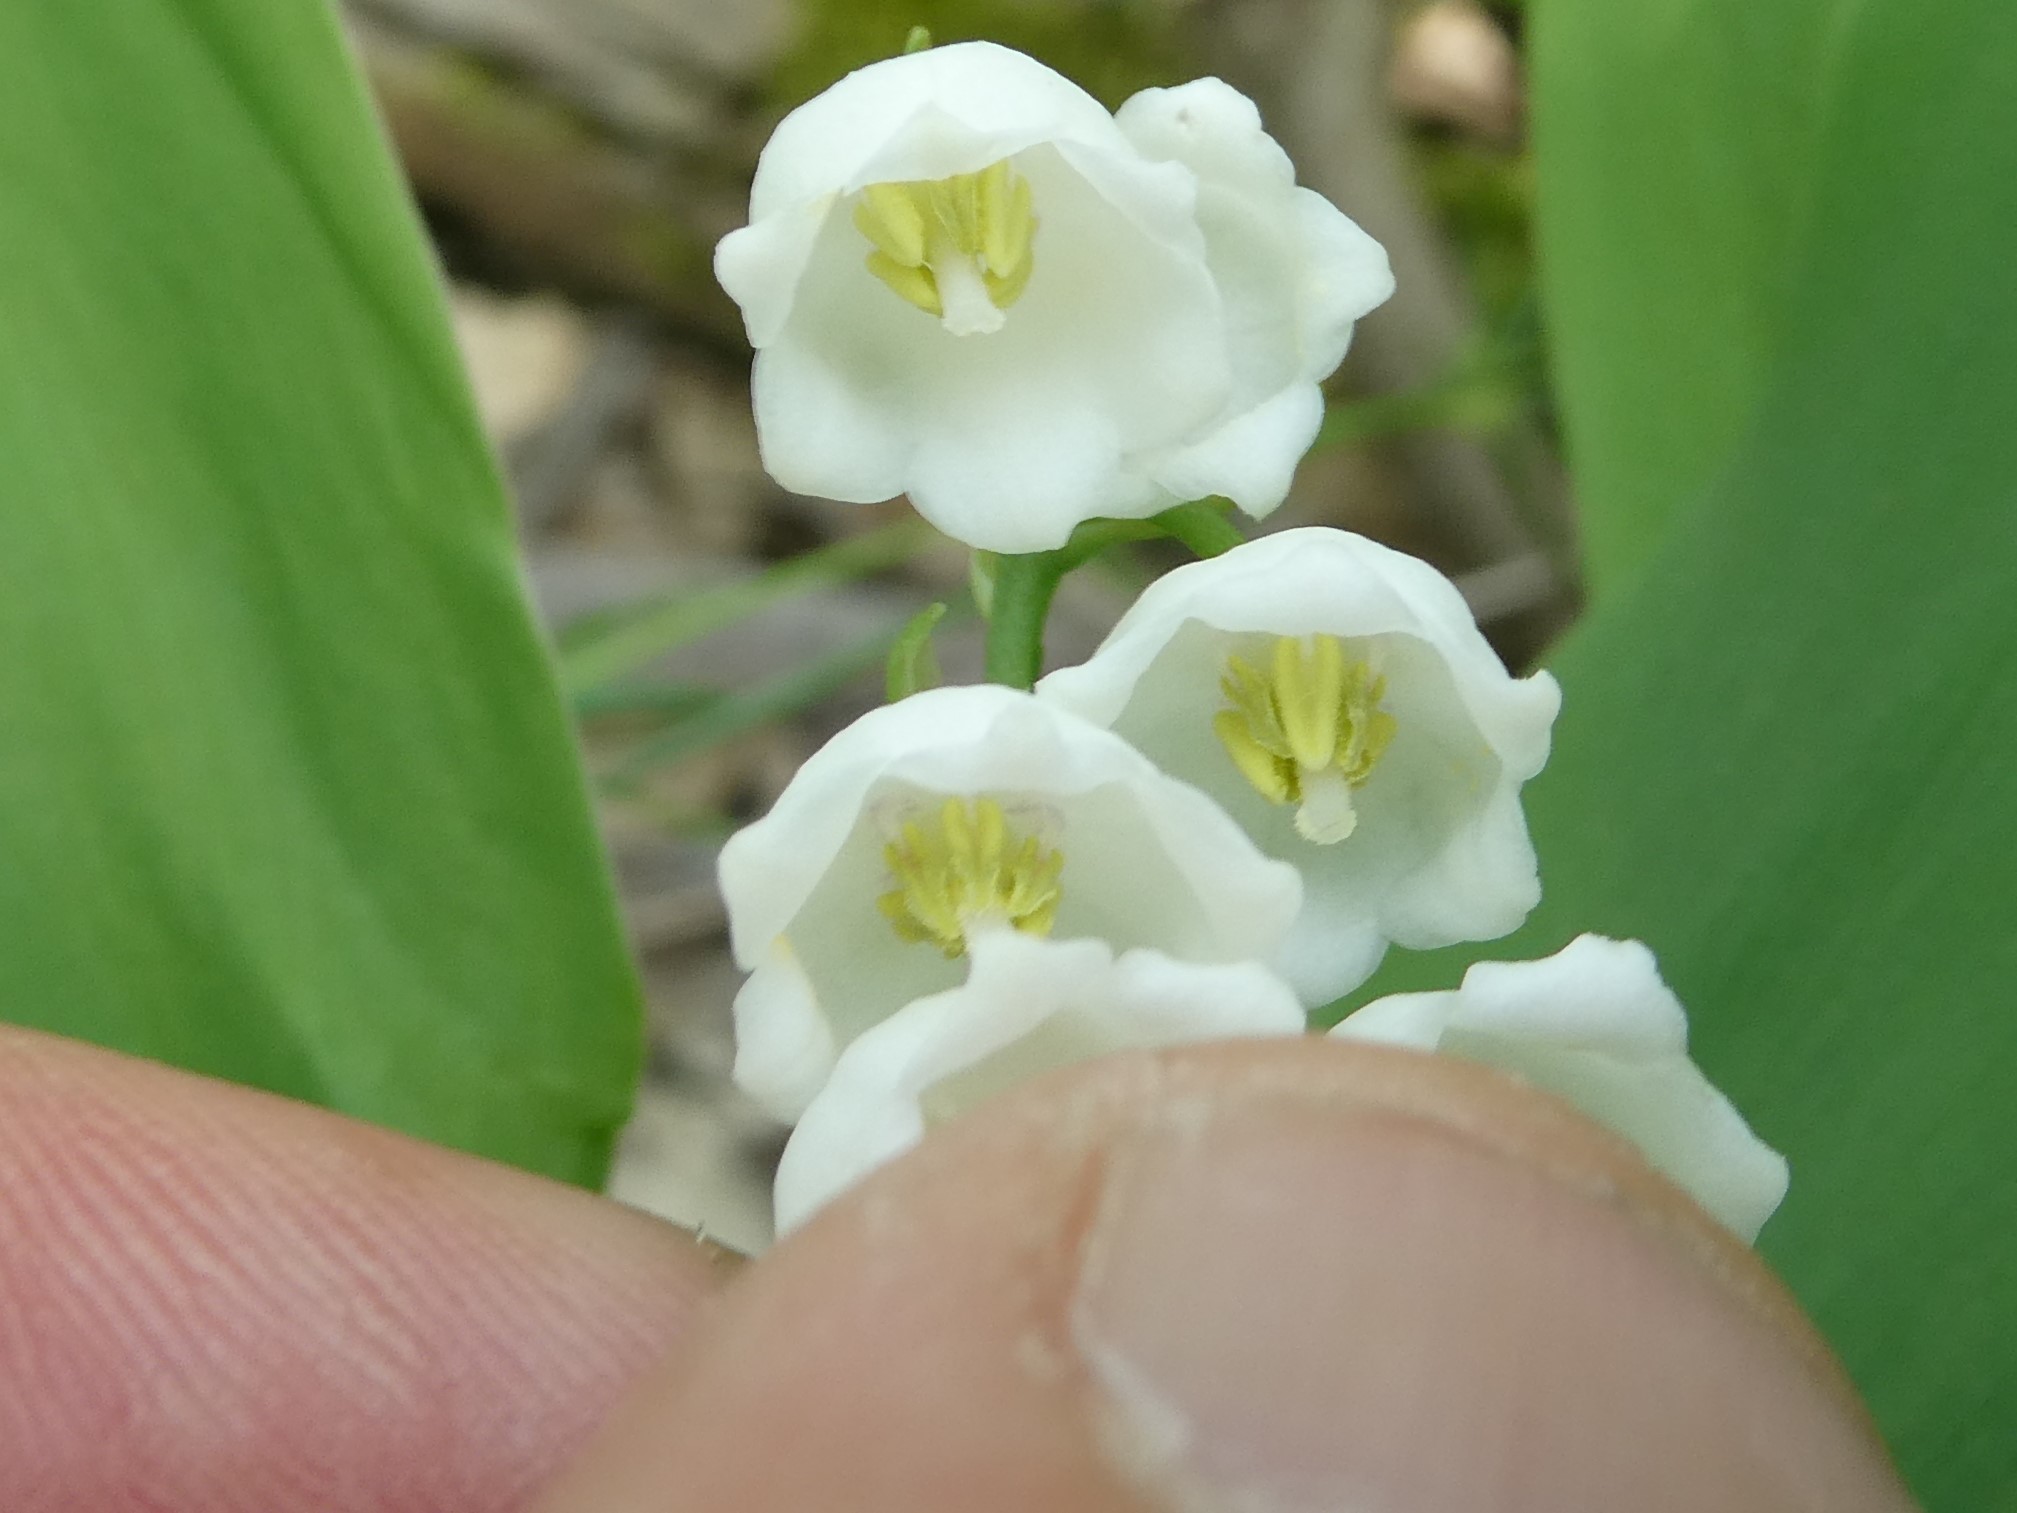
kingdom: Plantae
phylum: Tracheophyta
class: Liliopsida
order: Asparagales
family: Asparagaceae
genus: Convallaria
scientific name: Convallaria majalis
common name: Lily-of-the-valley
